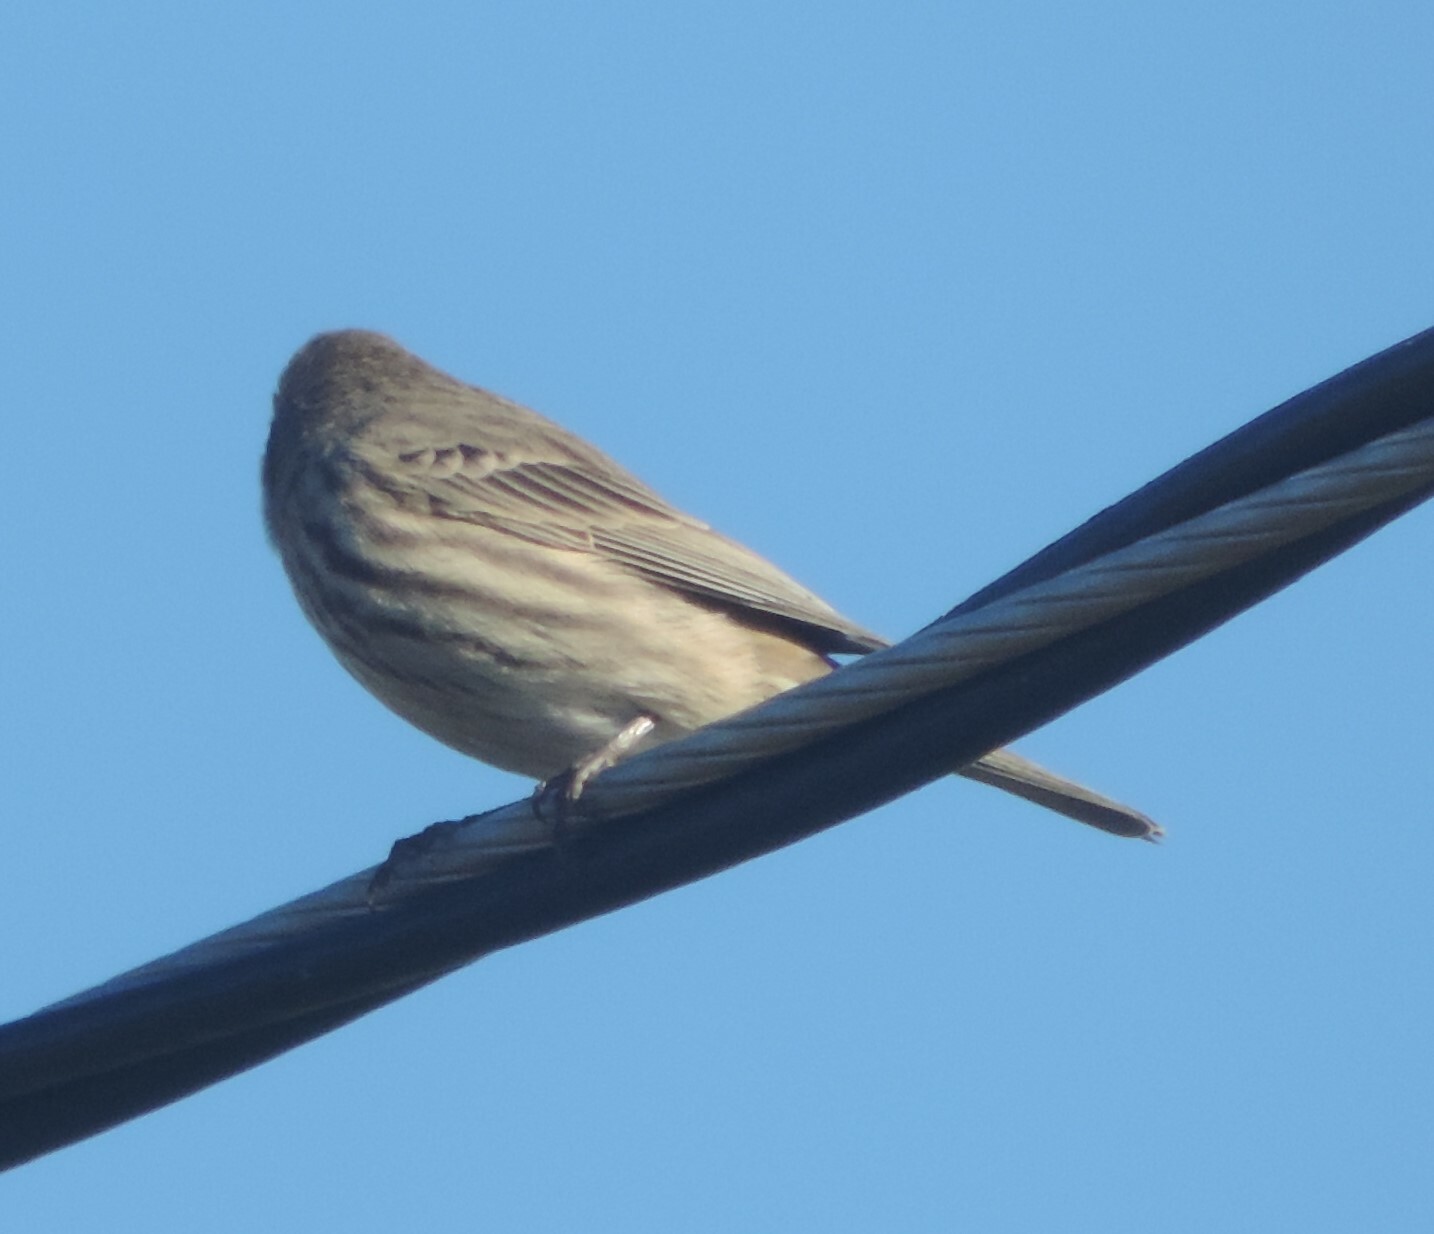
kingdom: Animalia
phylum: Chordata
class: Aves
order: Passeriformes
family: Fringillidae
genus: Haemorhous
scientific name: Haemorhous mexicanus
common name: House finch
